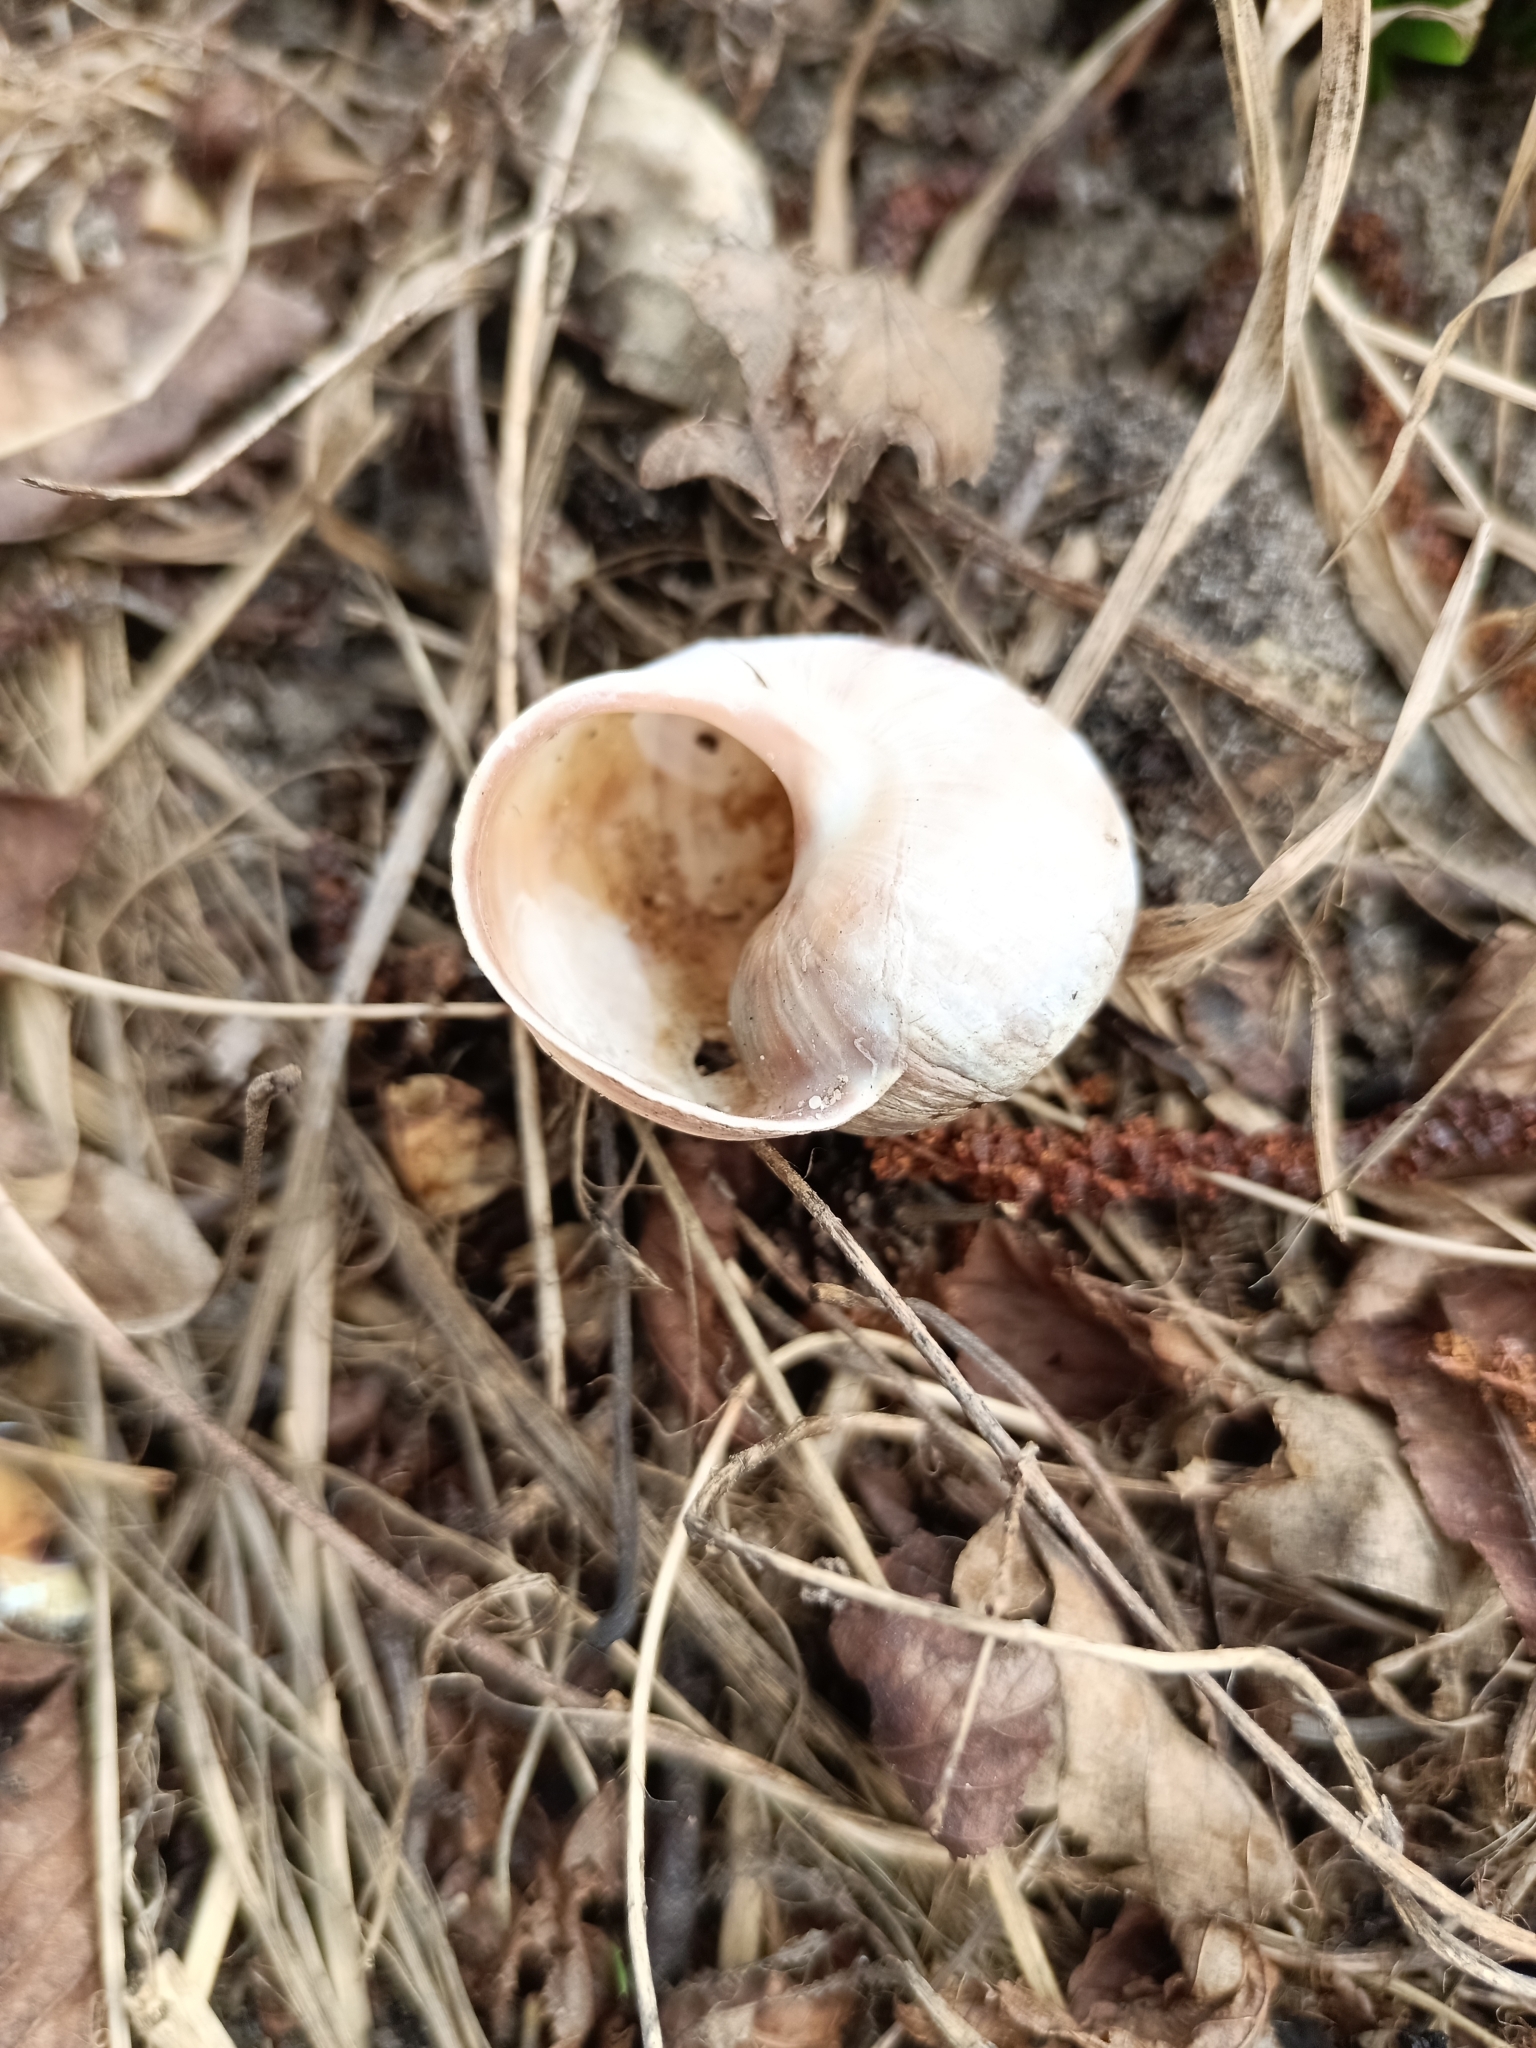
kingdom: Animalia
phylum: Mollusca
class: Gastropoda
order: Stylommatophora
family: Helicidae
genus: Helix
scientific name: Helix pomatia
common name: Roman snail
